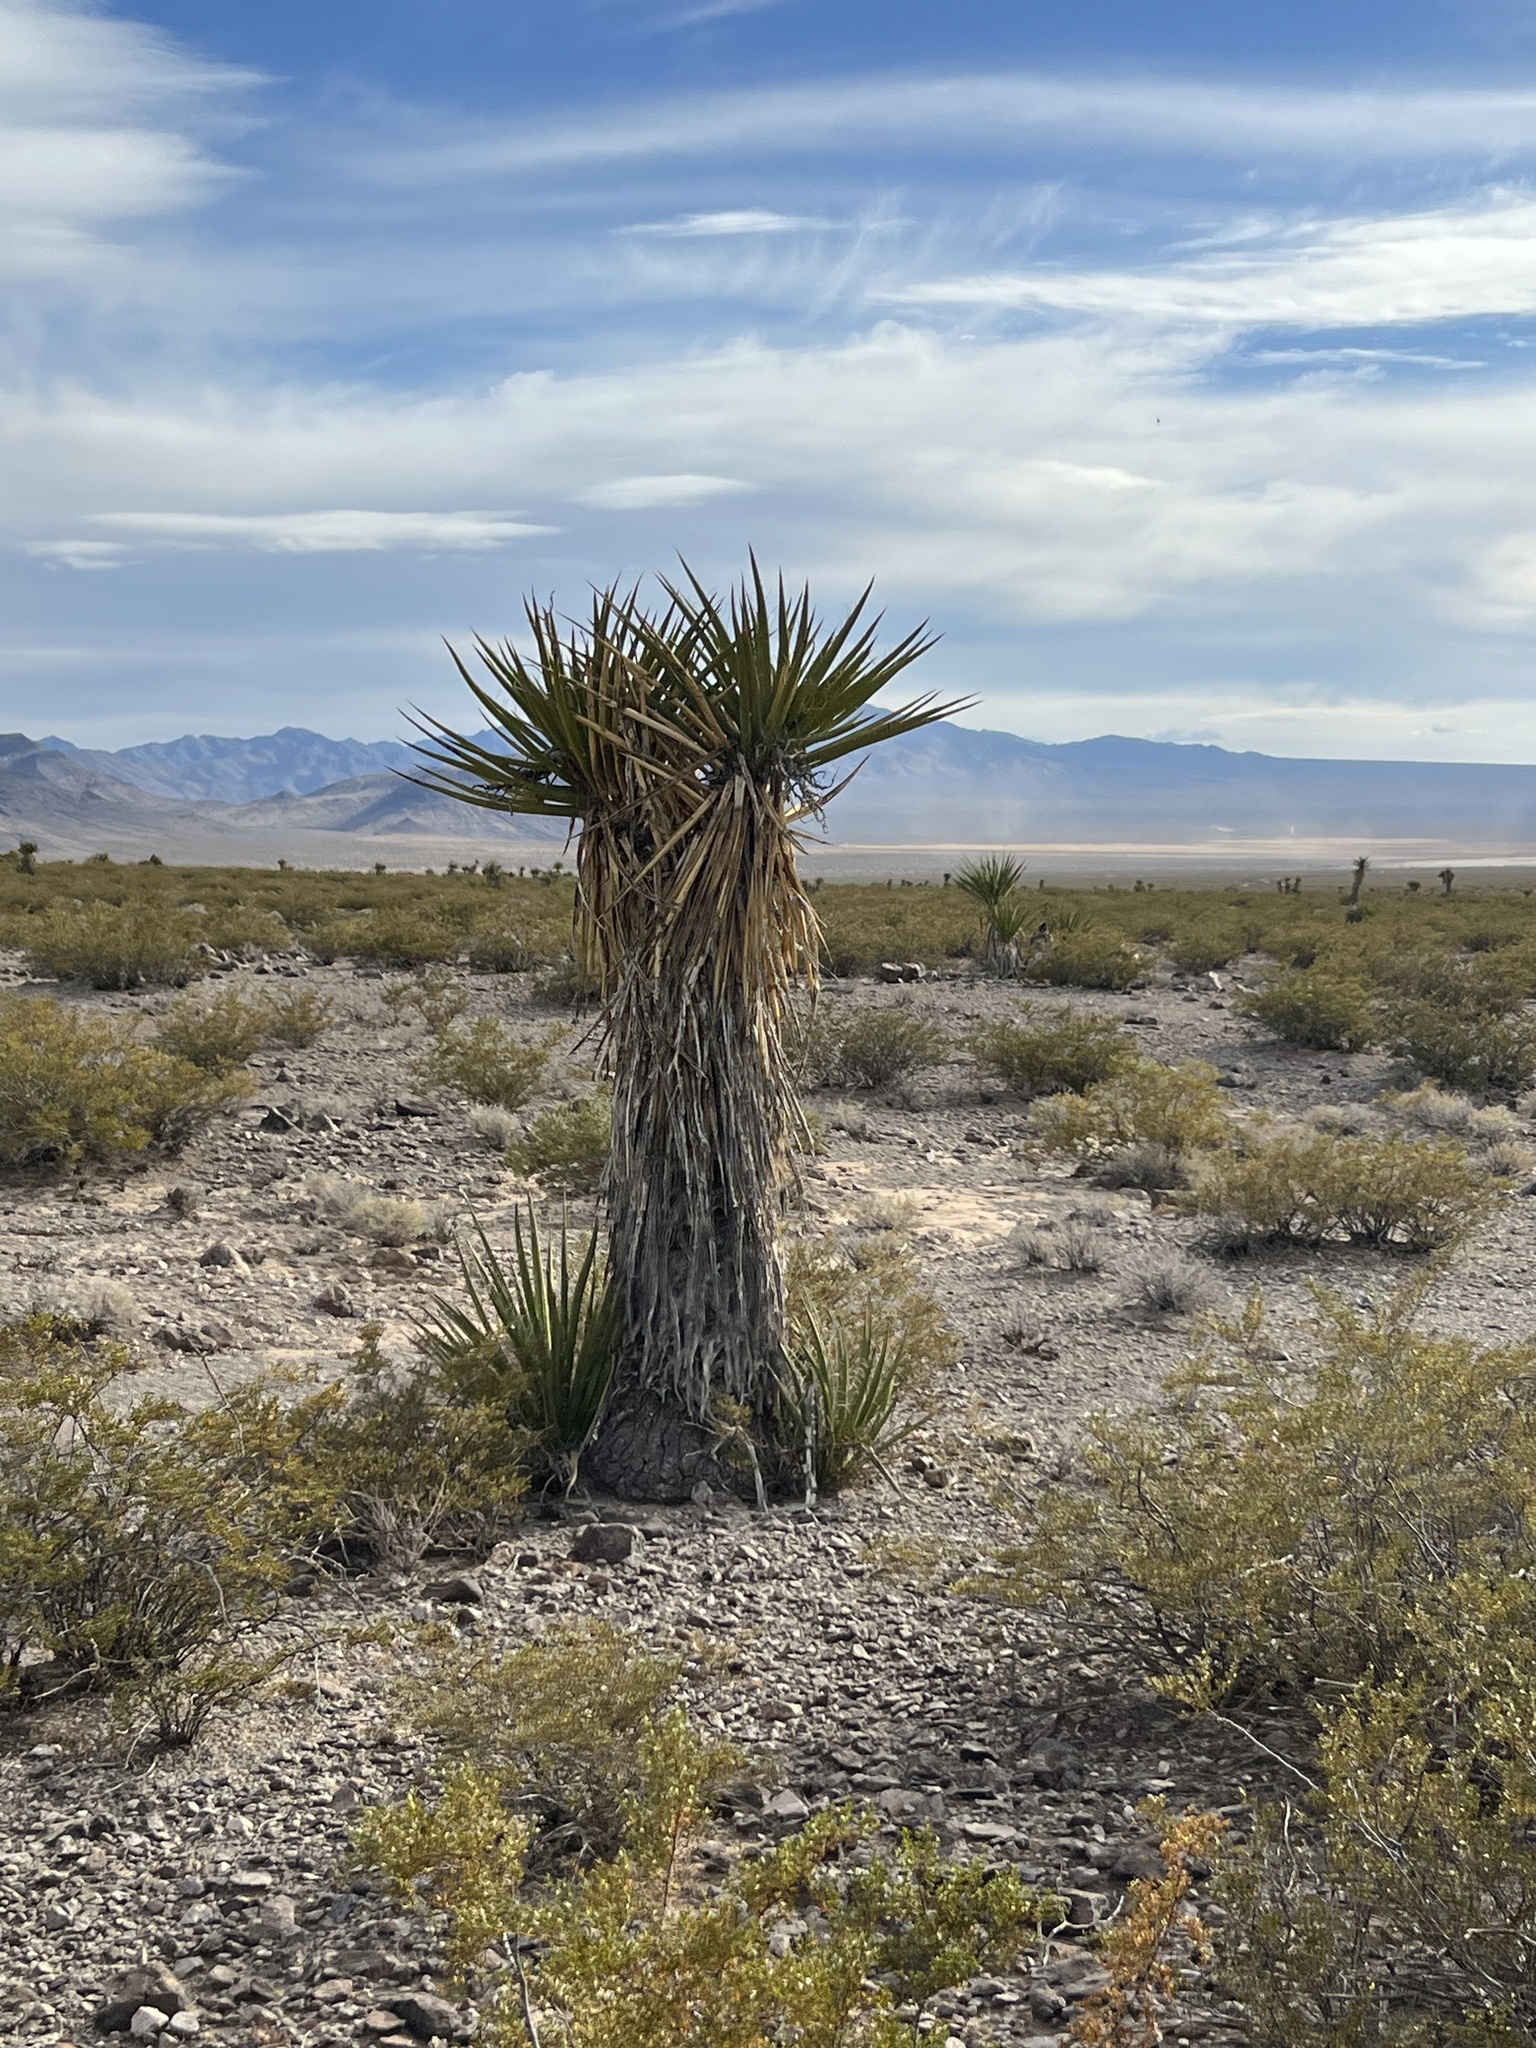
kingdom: Plantae
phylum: Tracheophyta
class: Liliopsida
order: Asparagales
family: Asparagaceae
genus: Yucca
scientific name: Yucca schidigera
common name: Mojave yucca
